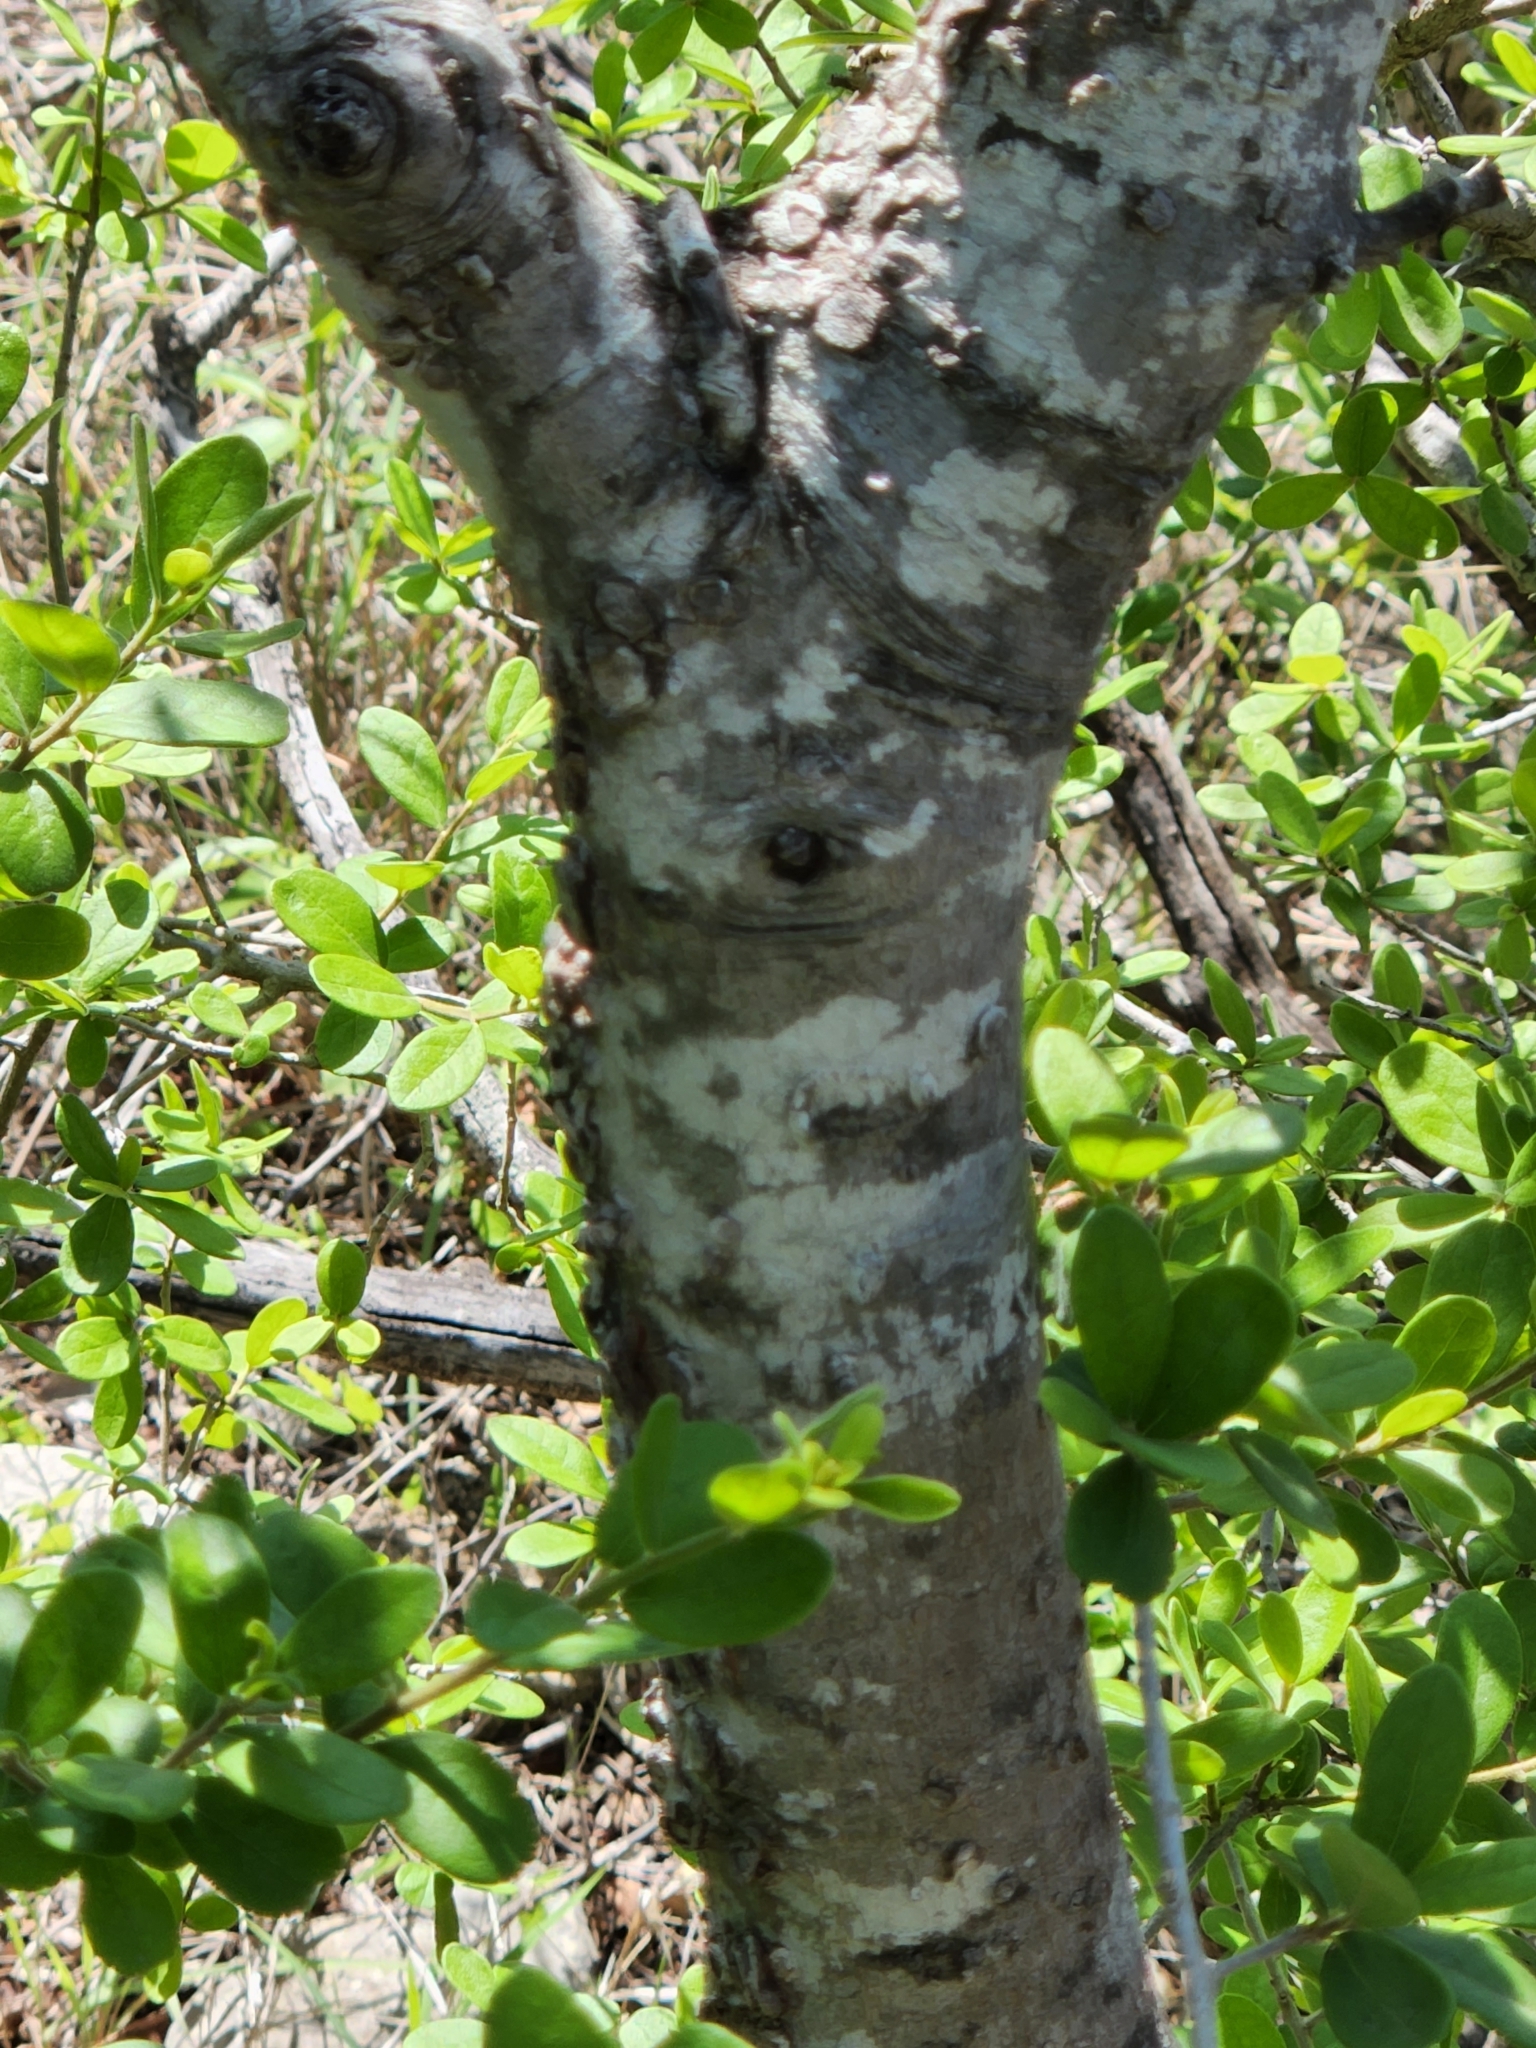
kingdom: Plantae
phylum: Tracheophyta
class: Magnoliopsida
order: Rosales
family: Cannabaceae
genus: Celtis
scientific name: Celtis reticulata
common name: Netleaf hackberry
